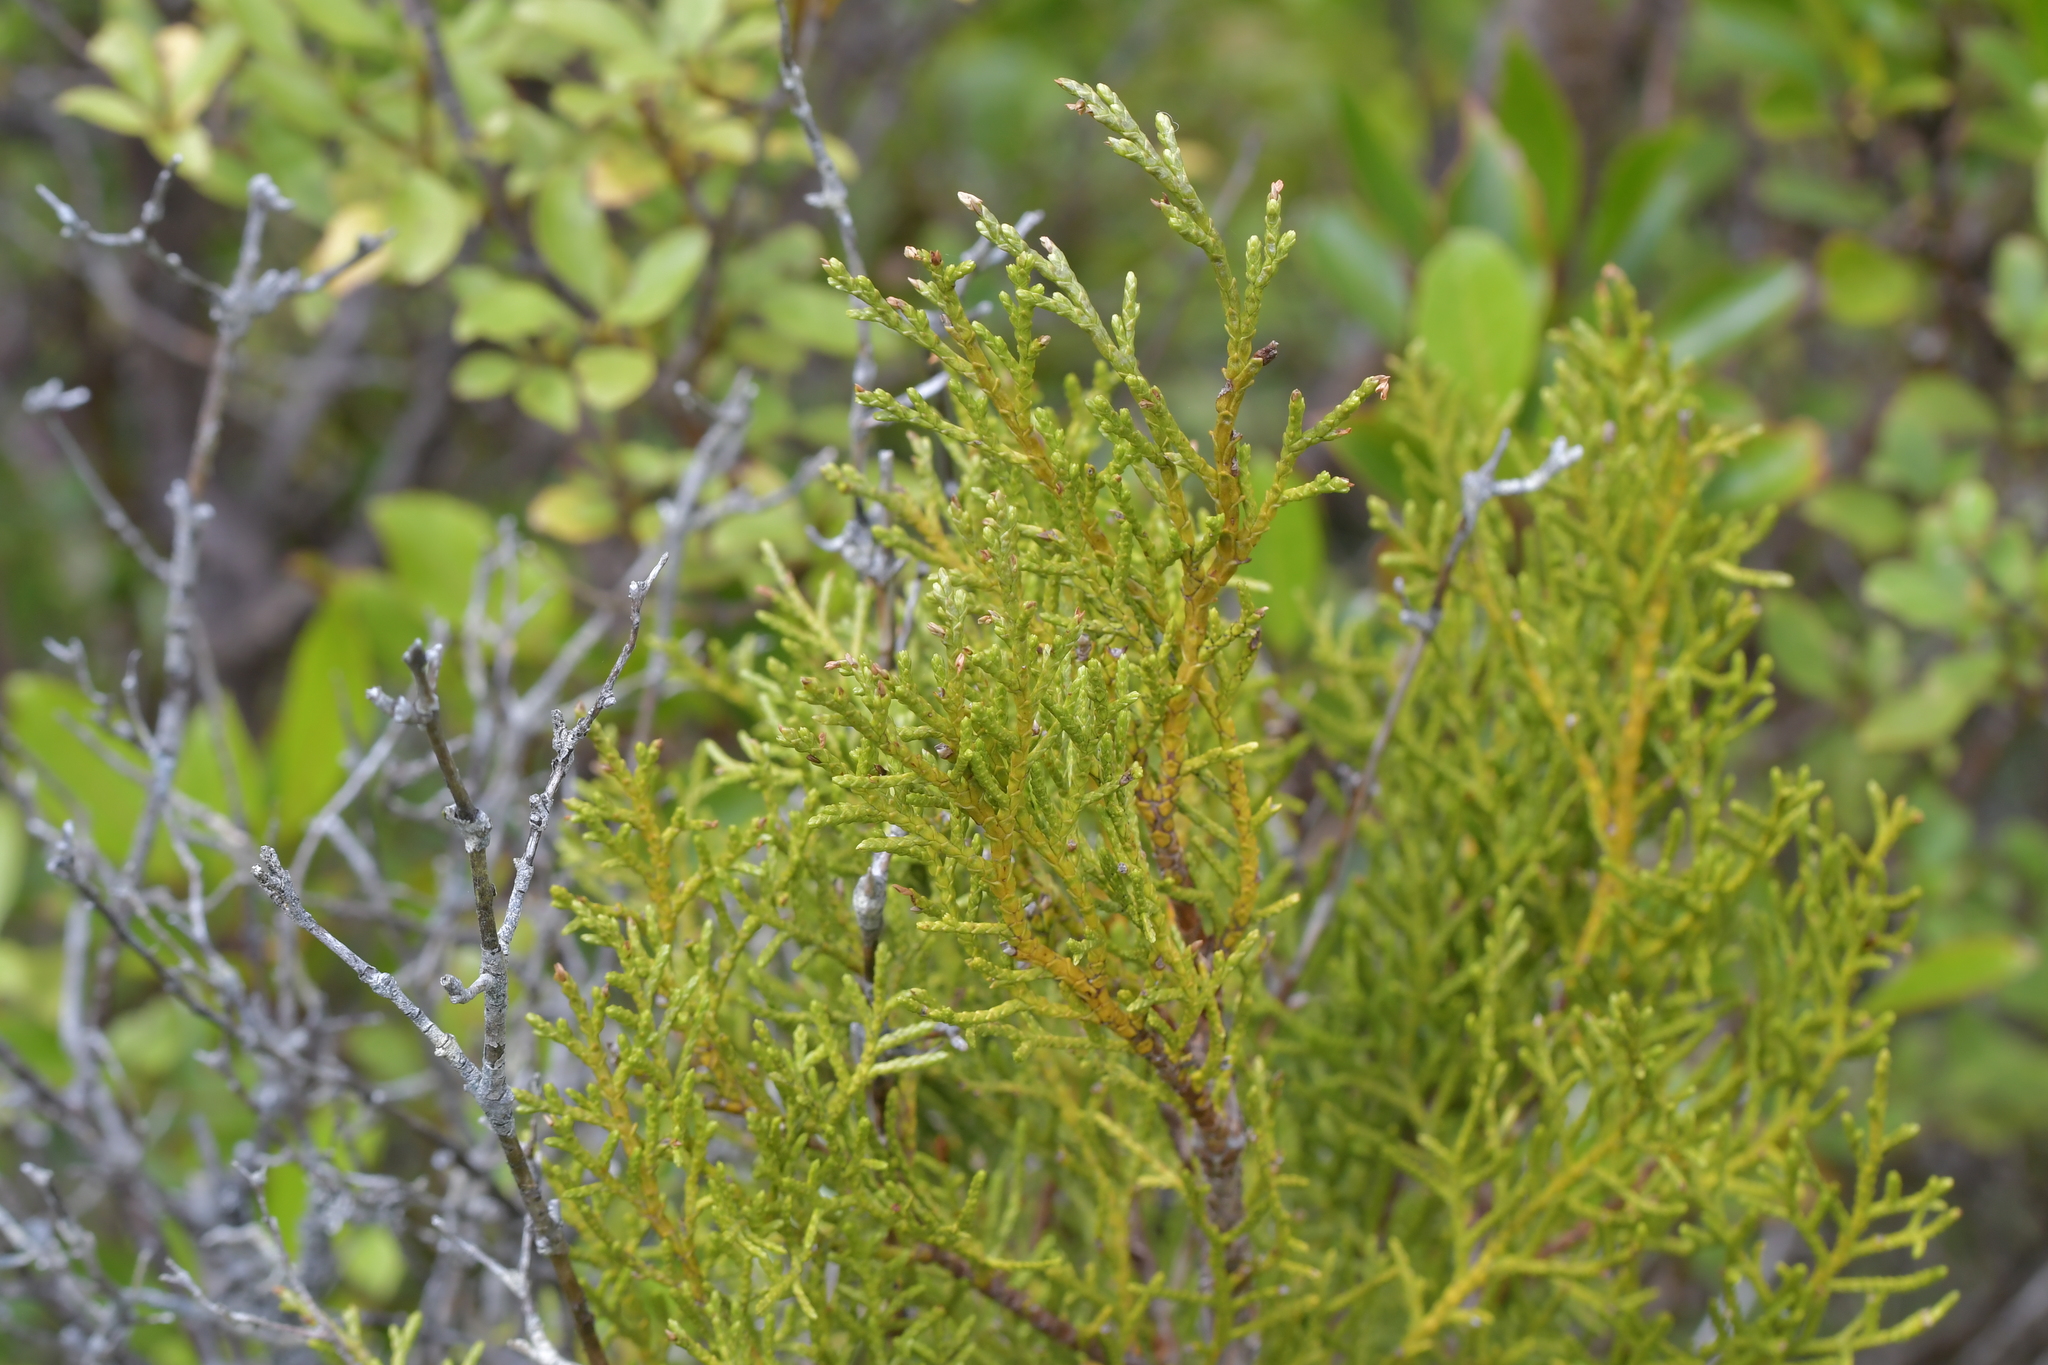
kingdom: Plantae
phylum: Tracheophyta
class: Pinopsida
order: Pinales
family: Podocarpaceae
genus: Halocarpus
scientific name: Halocarpus biformis
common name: Alpine tarwood
